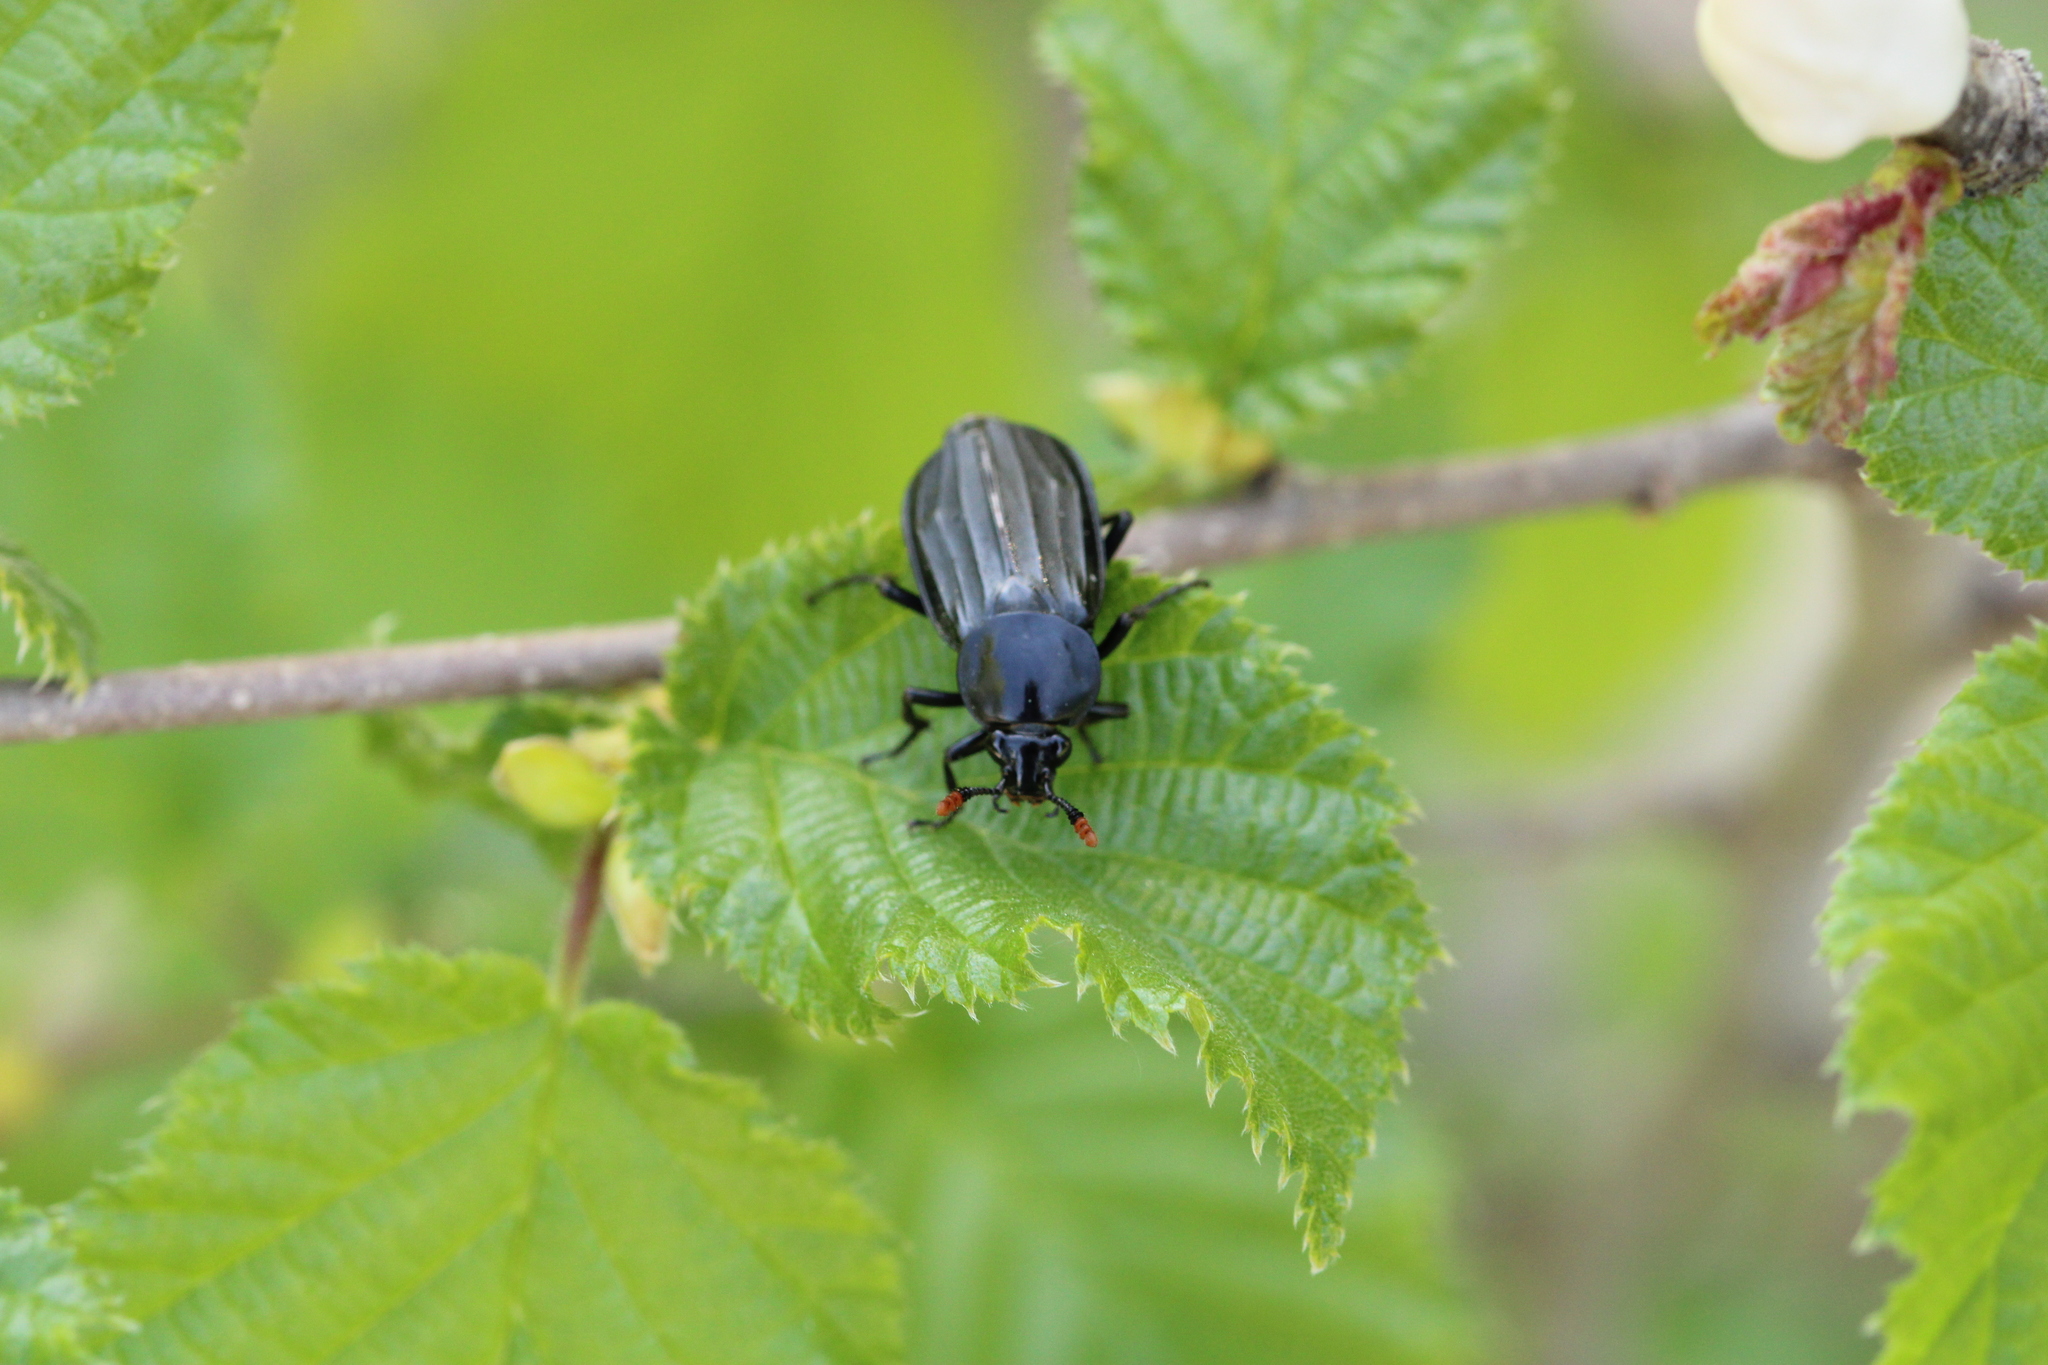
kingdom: Animalia
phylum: Arthropoda
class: Insecta
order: Coleoptera
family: Staphylinidae
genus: Necrodes
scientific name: Necrodes littoralis
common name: Shore sexton beetle
